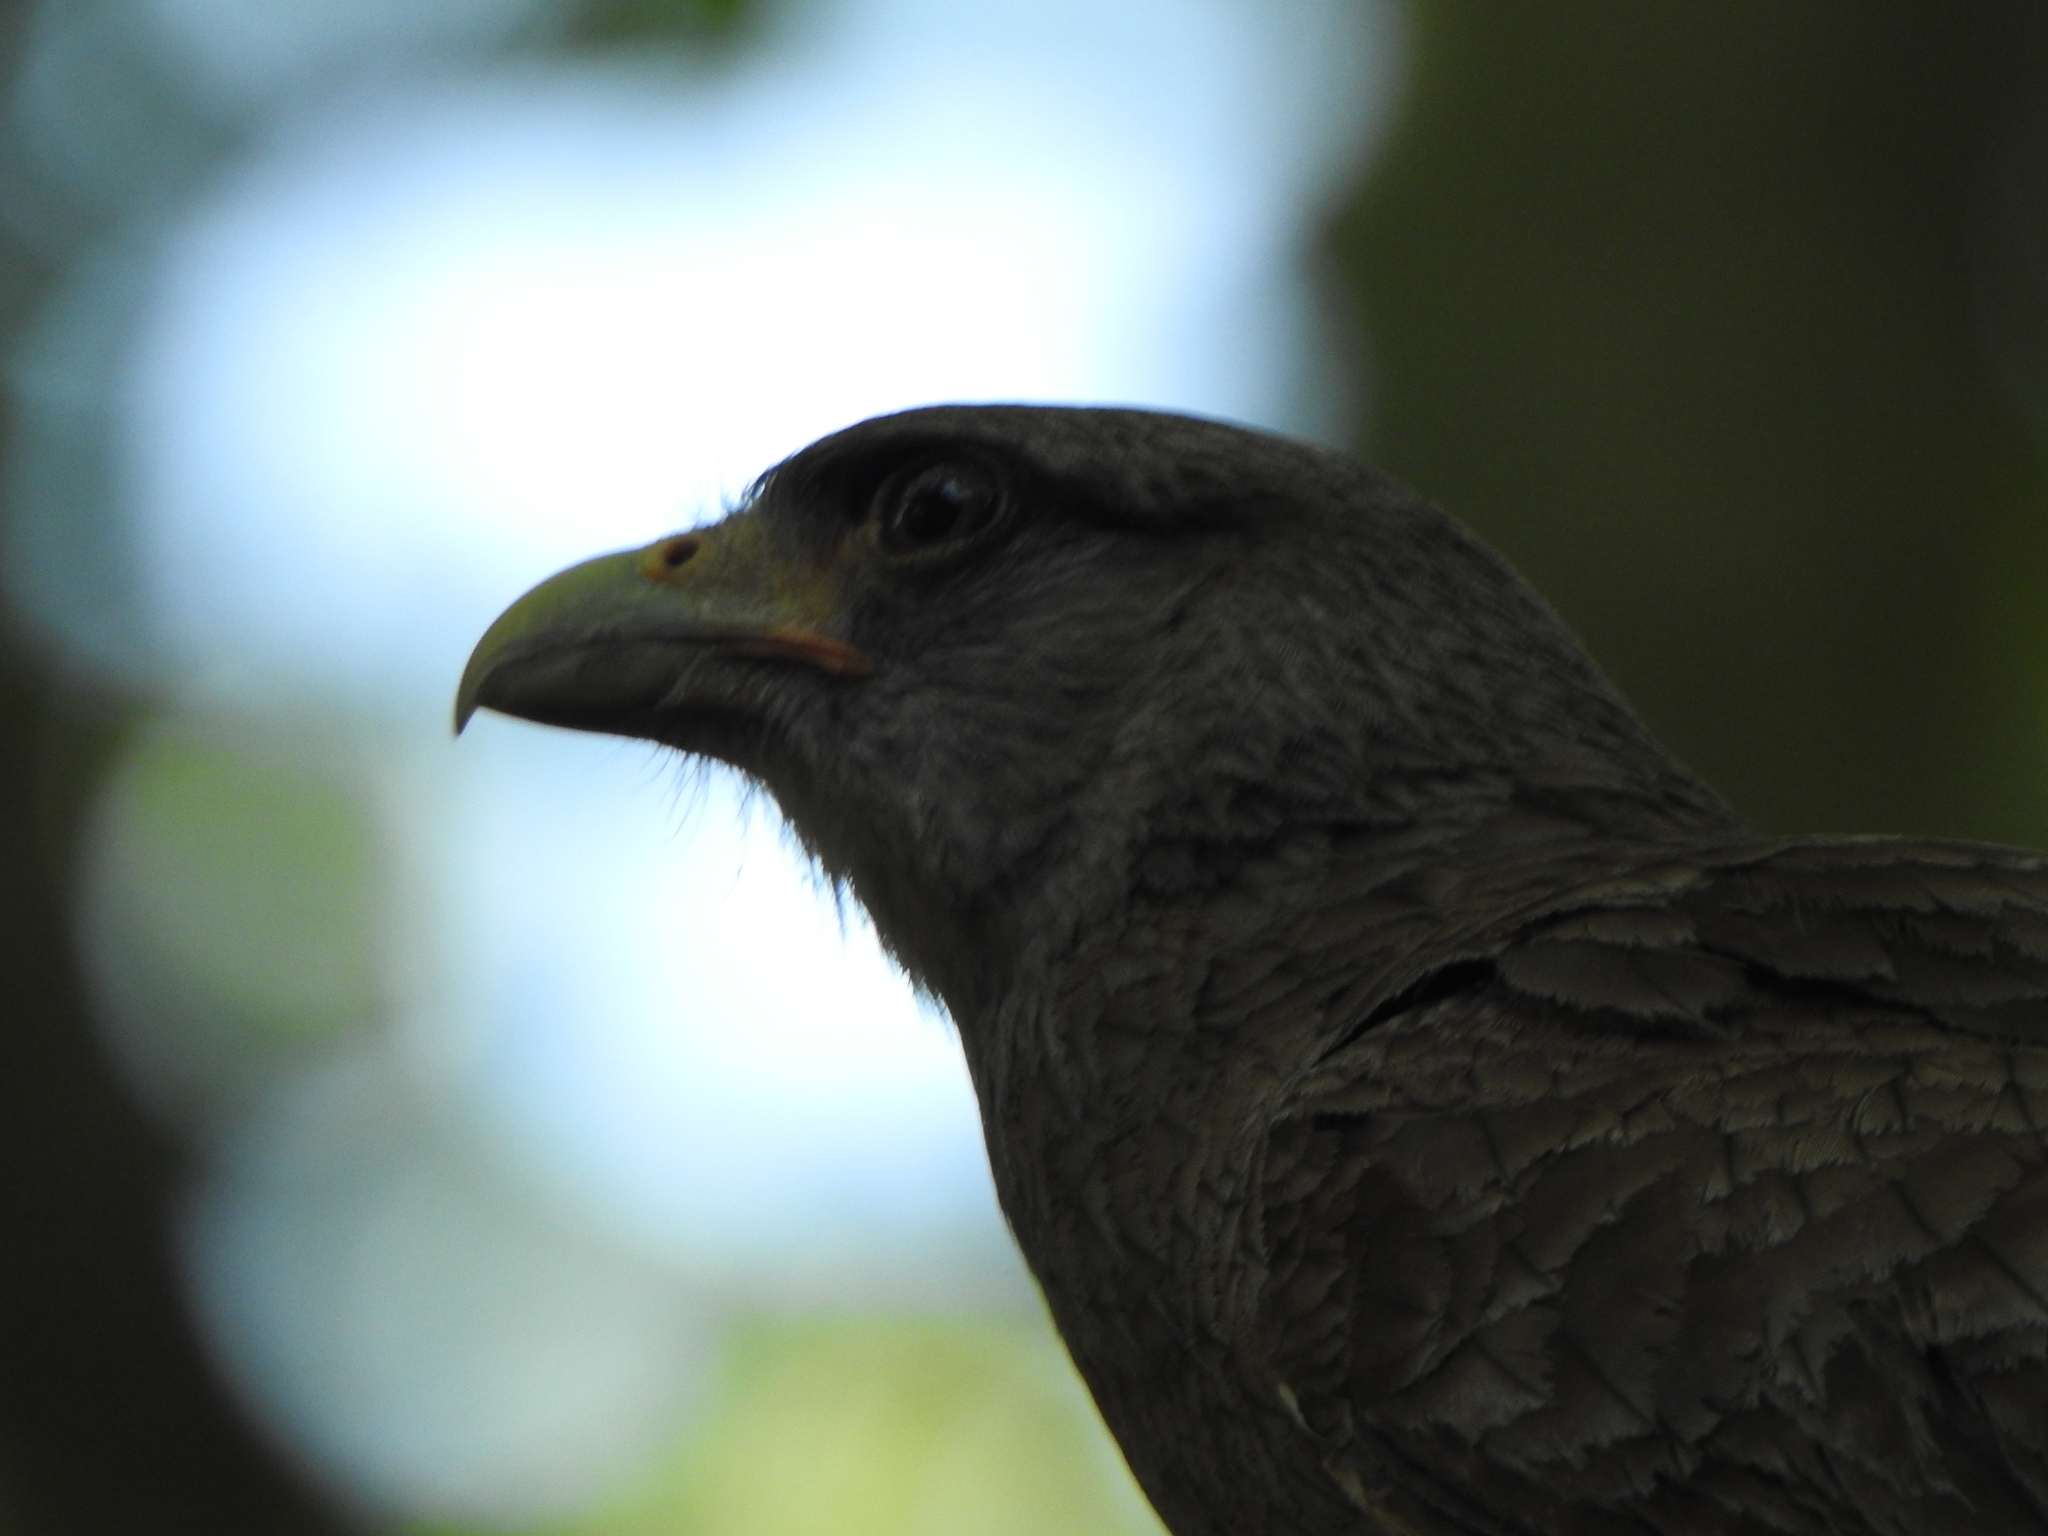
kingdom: Animalia
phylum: Chordata
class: Aves
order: Falconiformes
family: Falconidae
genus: Daptrius
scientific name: Daptrius
